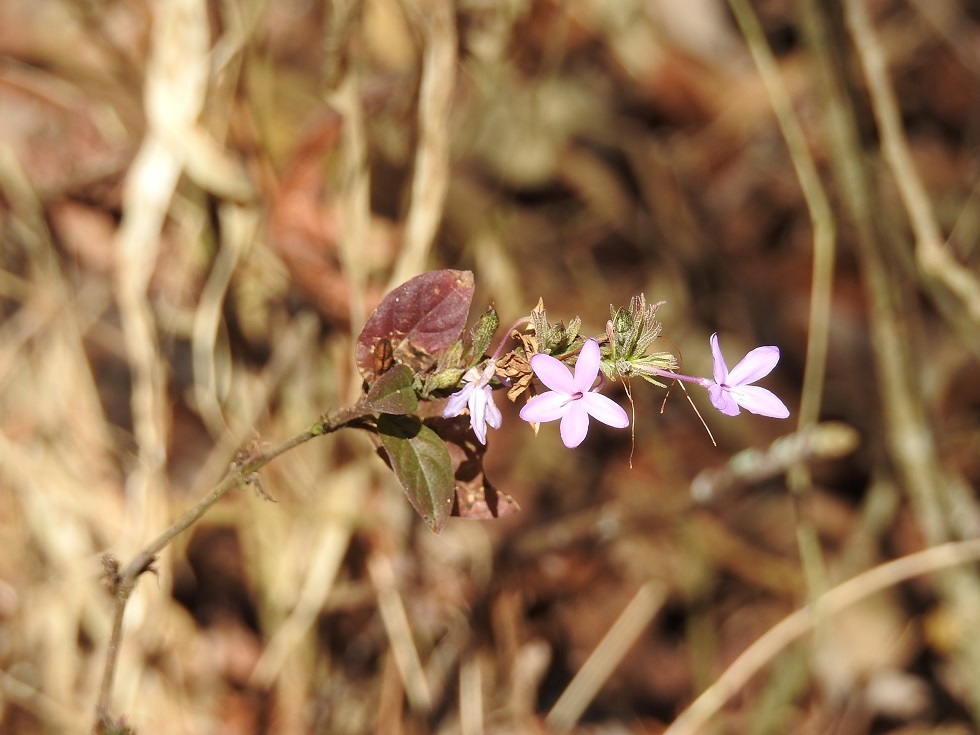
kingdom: Plantae
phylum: Tracheophyta
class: Magnoliopsida
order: Lamiales
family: Acanthaceae
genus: Pseuderanthemum
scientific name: Pseuderanthemum praecox
